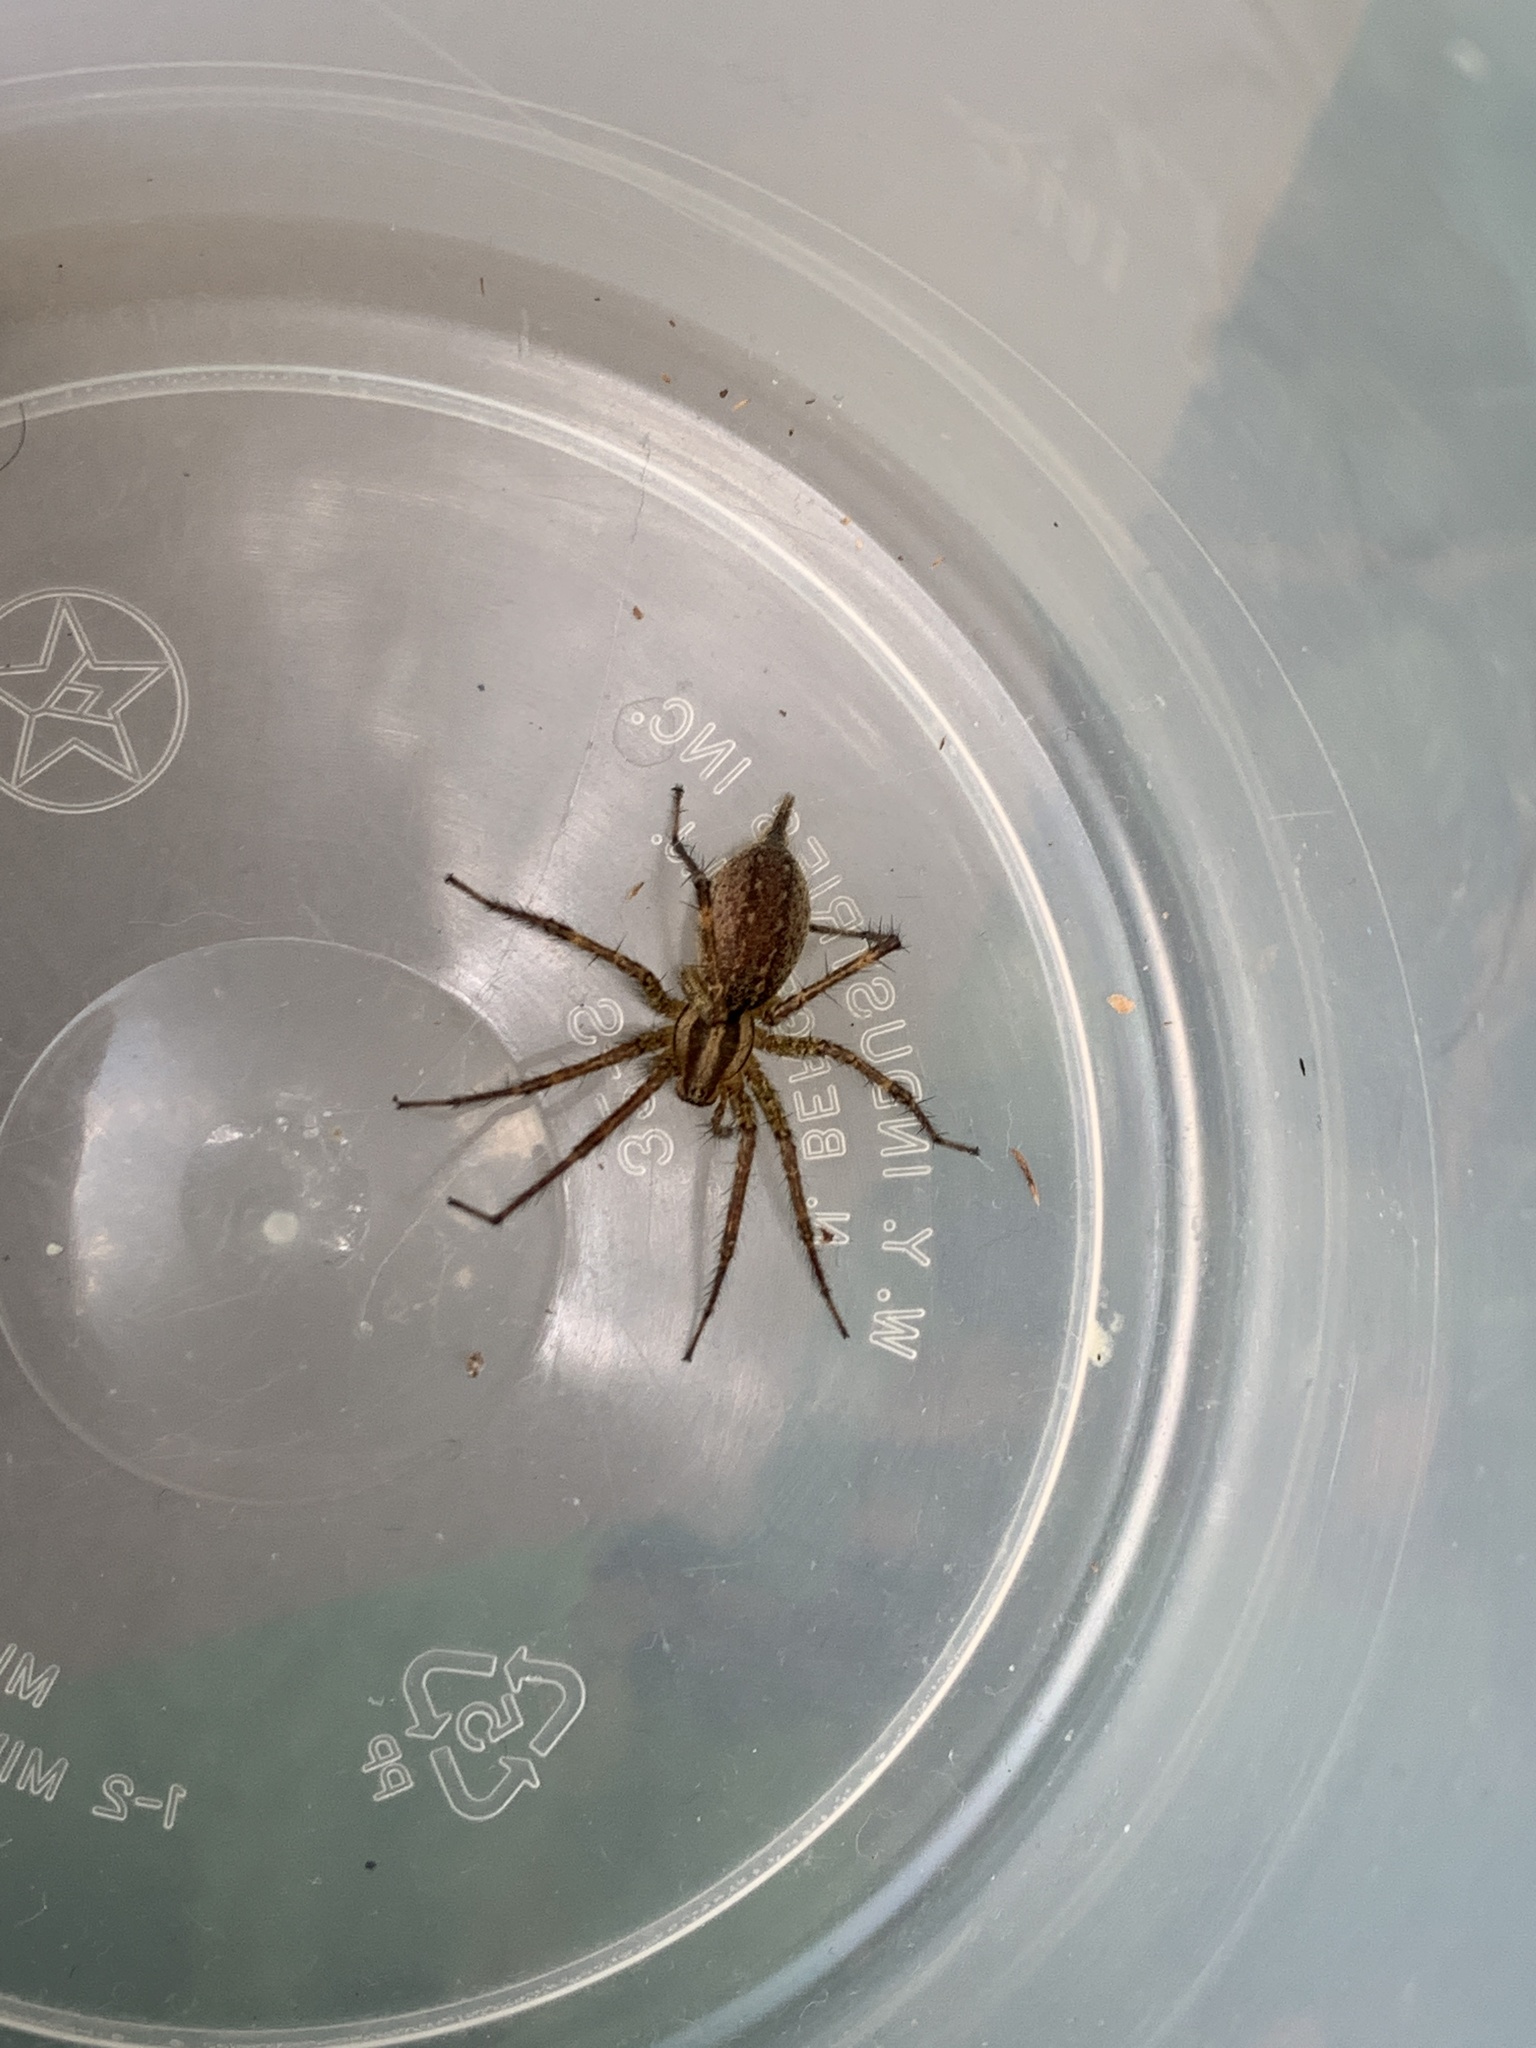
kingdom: Animalia
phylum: Arthropoda
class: Arachnida
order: Araneae
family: Agelenidae
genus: Agelenopsis
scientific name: Agelenopsis
